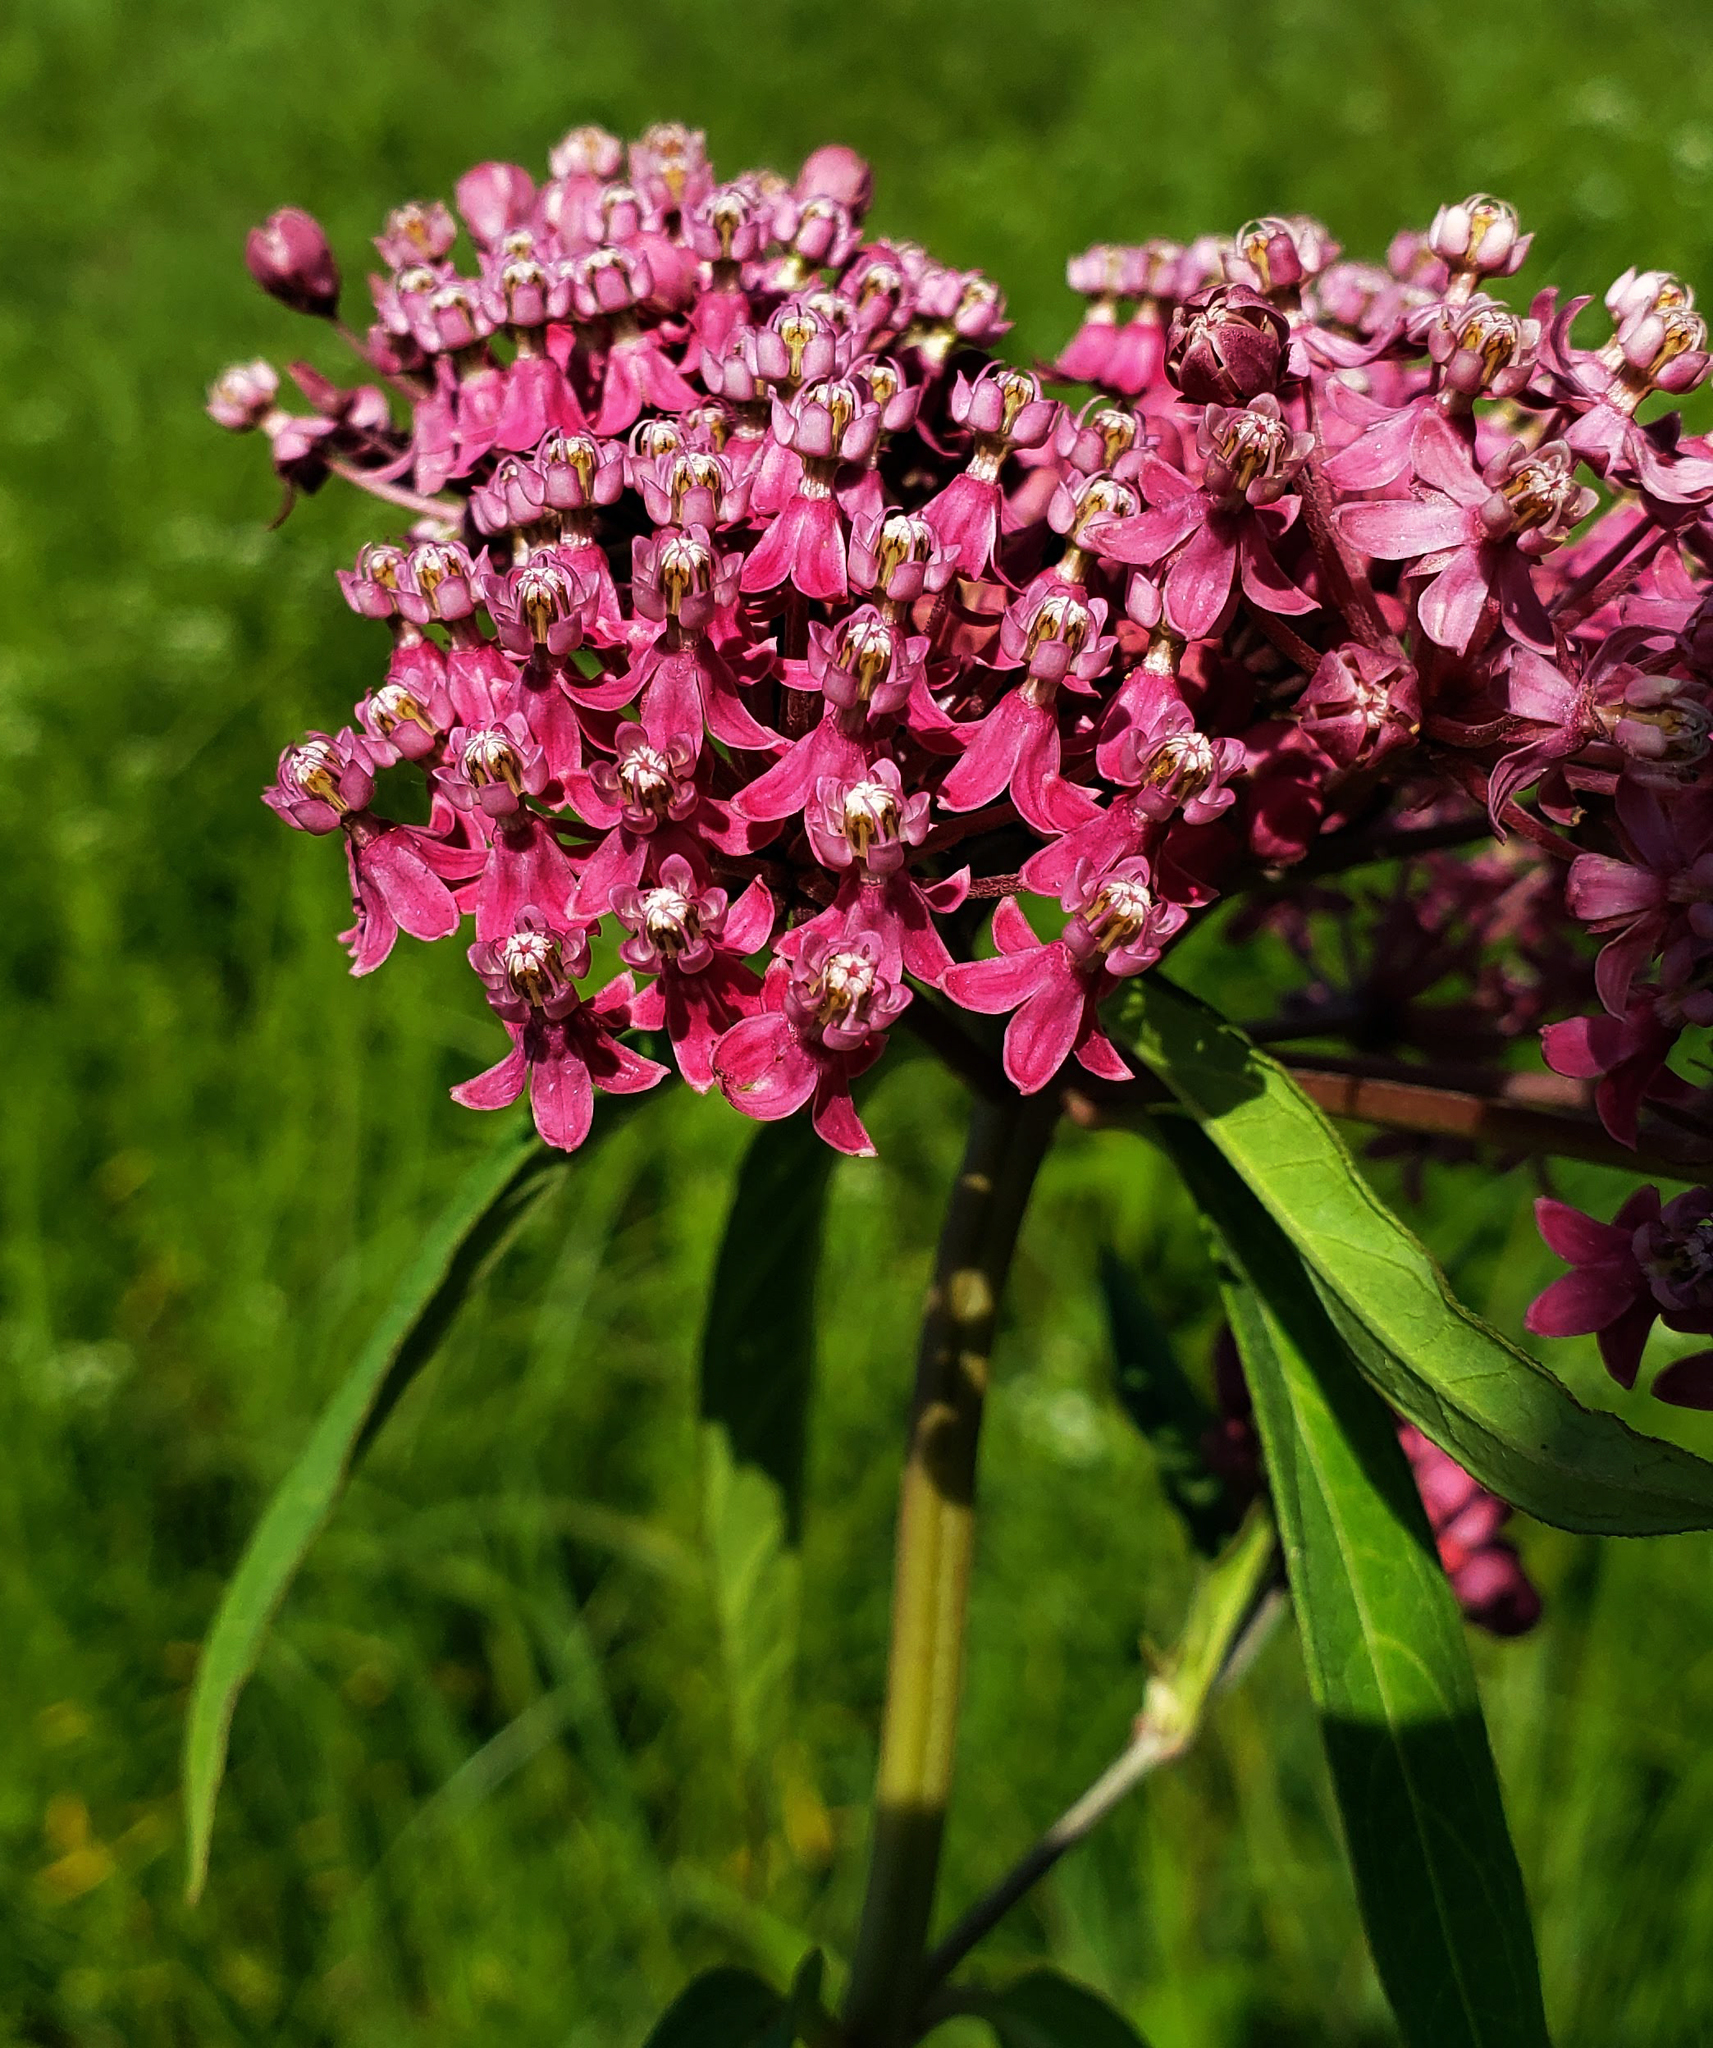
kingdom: Plantae
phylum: Tracheophyta
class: Magnoliopsida
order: Gentianales
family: Apocynaceae
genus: Asclepias
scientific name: Asclepias incarnata
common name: Swamp milkweed
